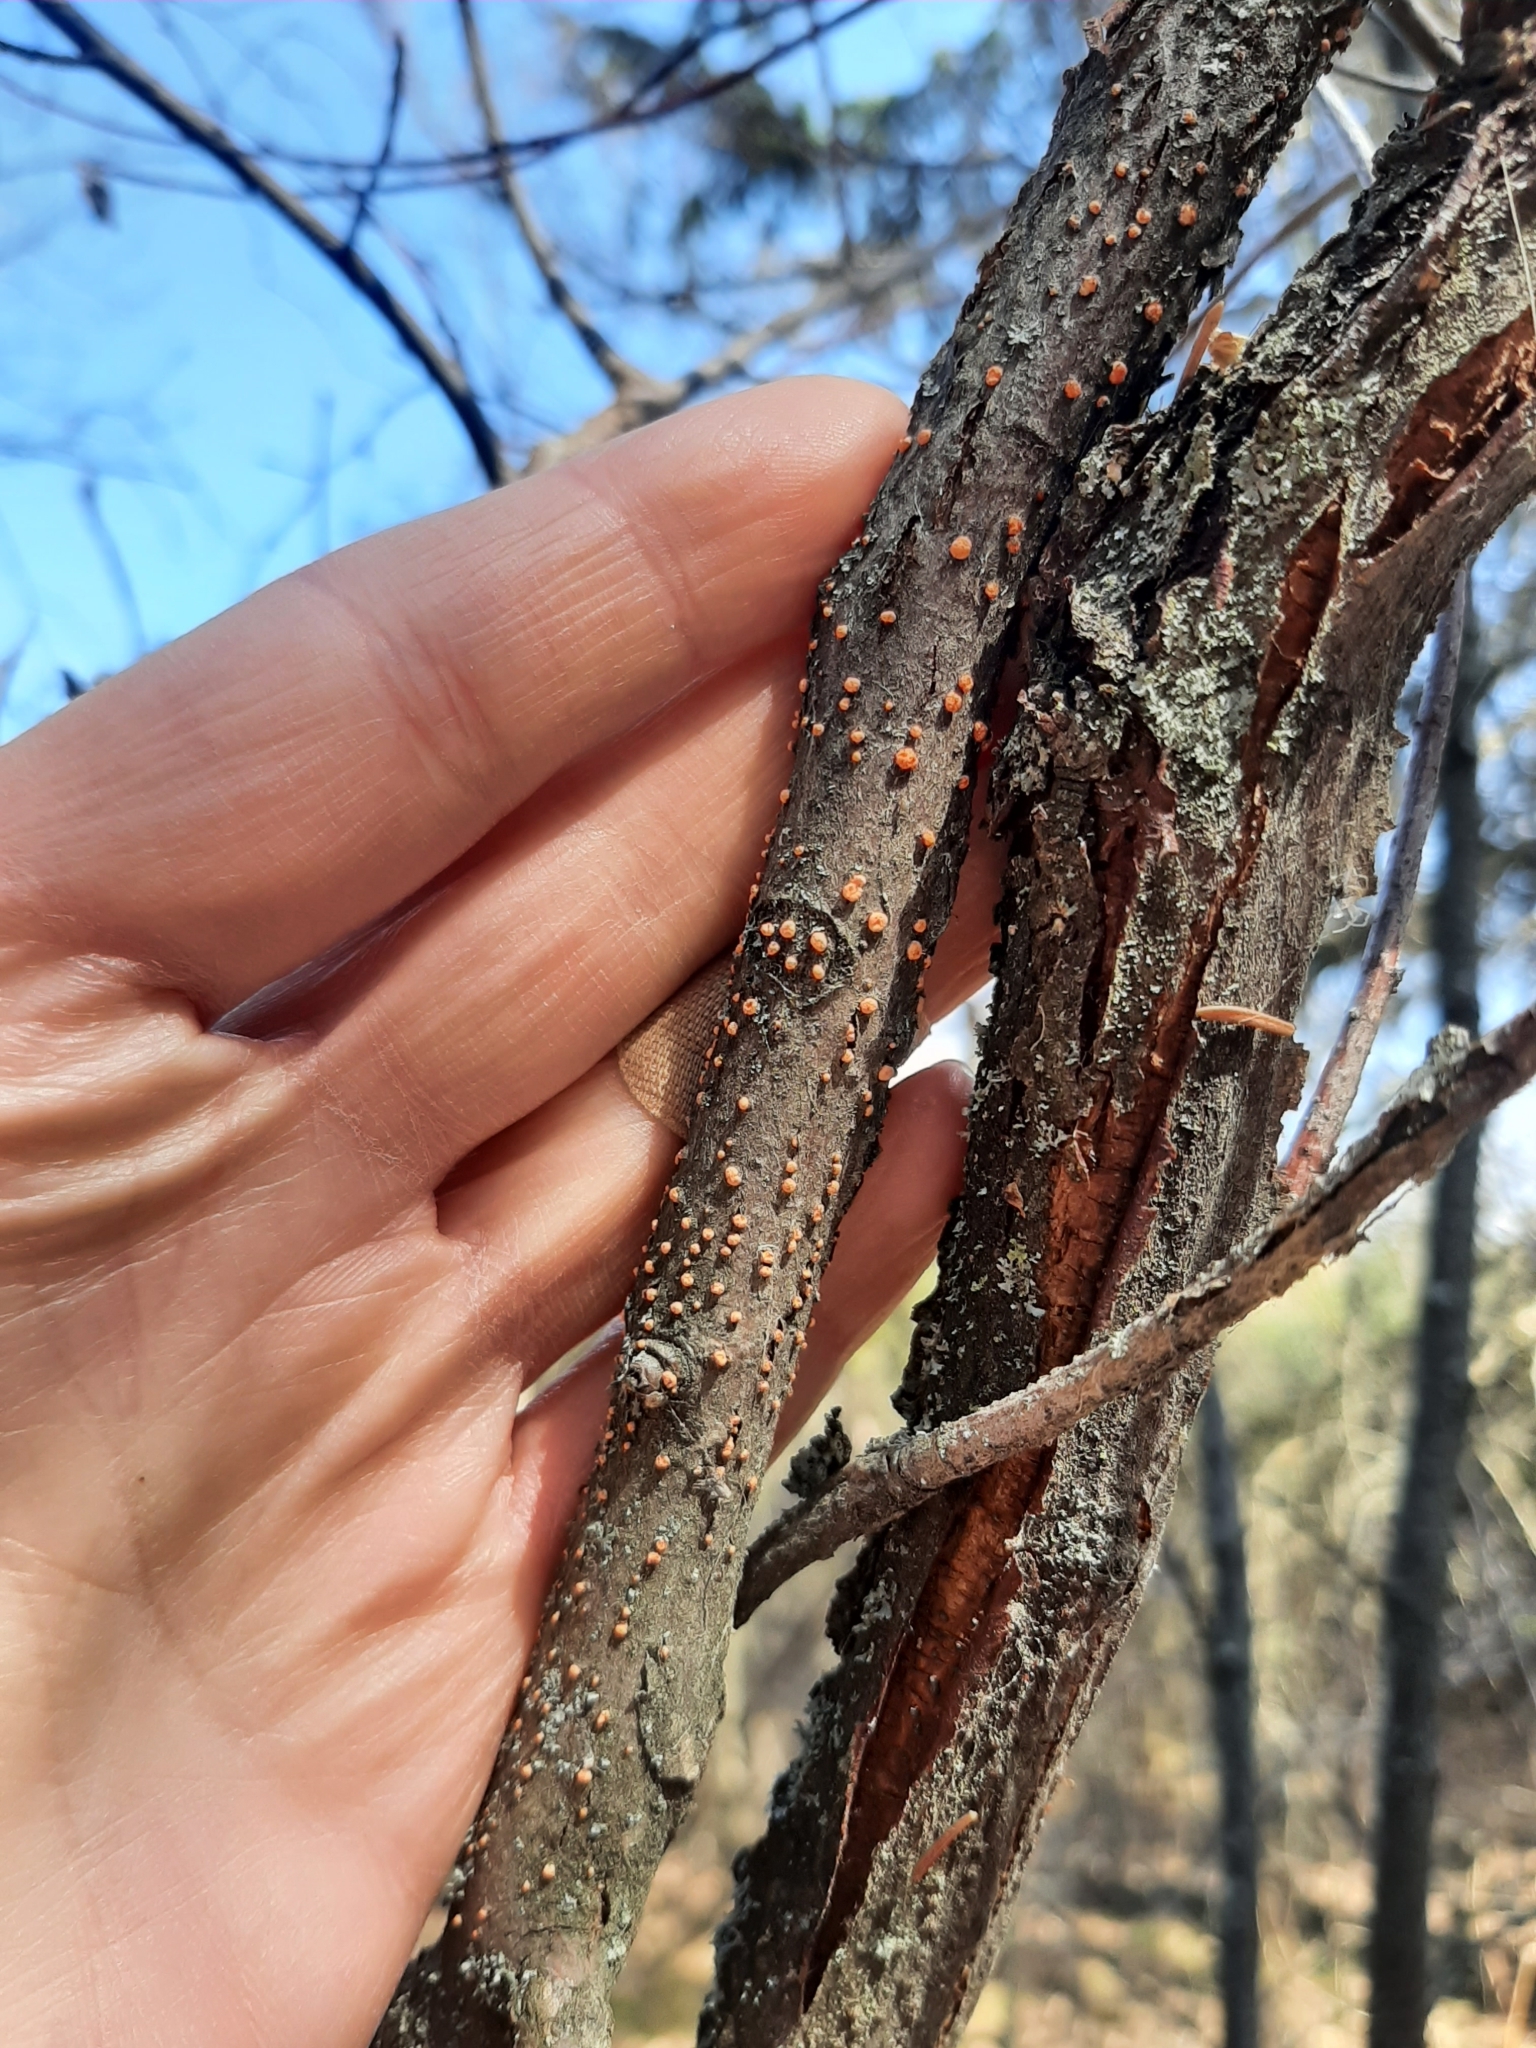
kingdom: Fungi
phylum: Ascomycota
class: Sordariomycetes
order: Hypocreales
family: Nectriaceae
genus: Nectria
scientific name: Nectria cinnabarina
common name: Coral spot
